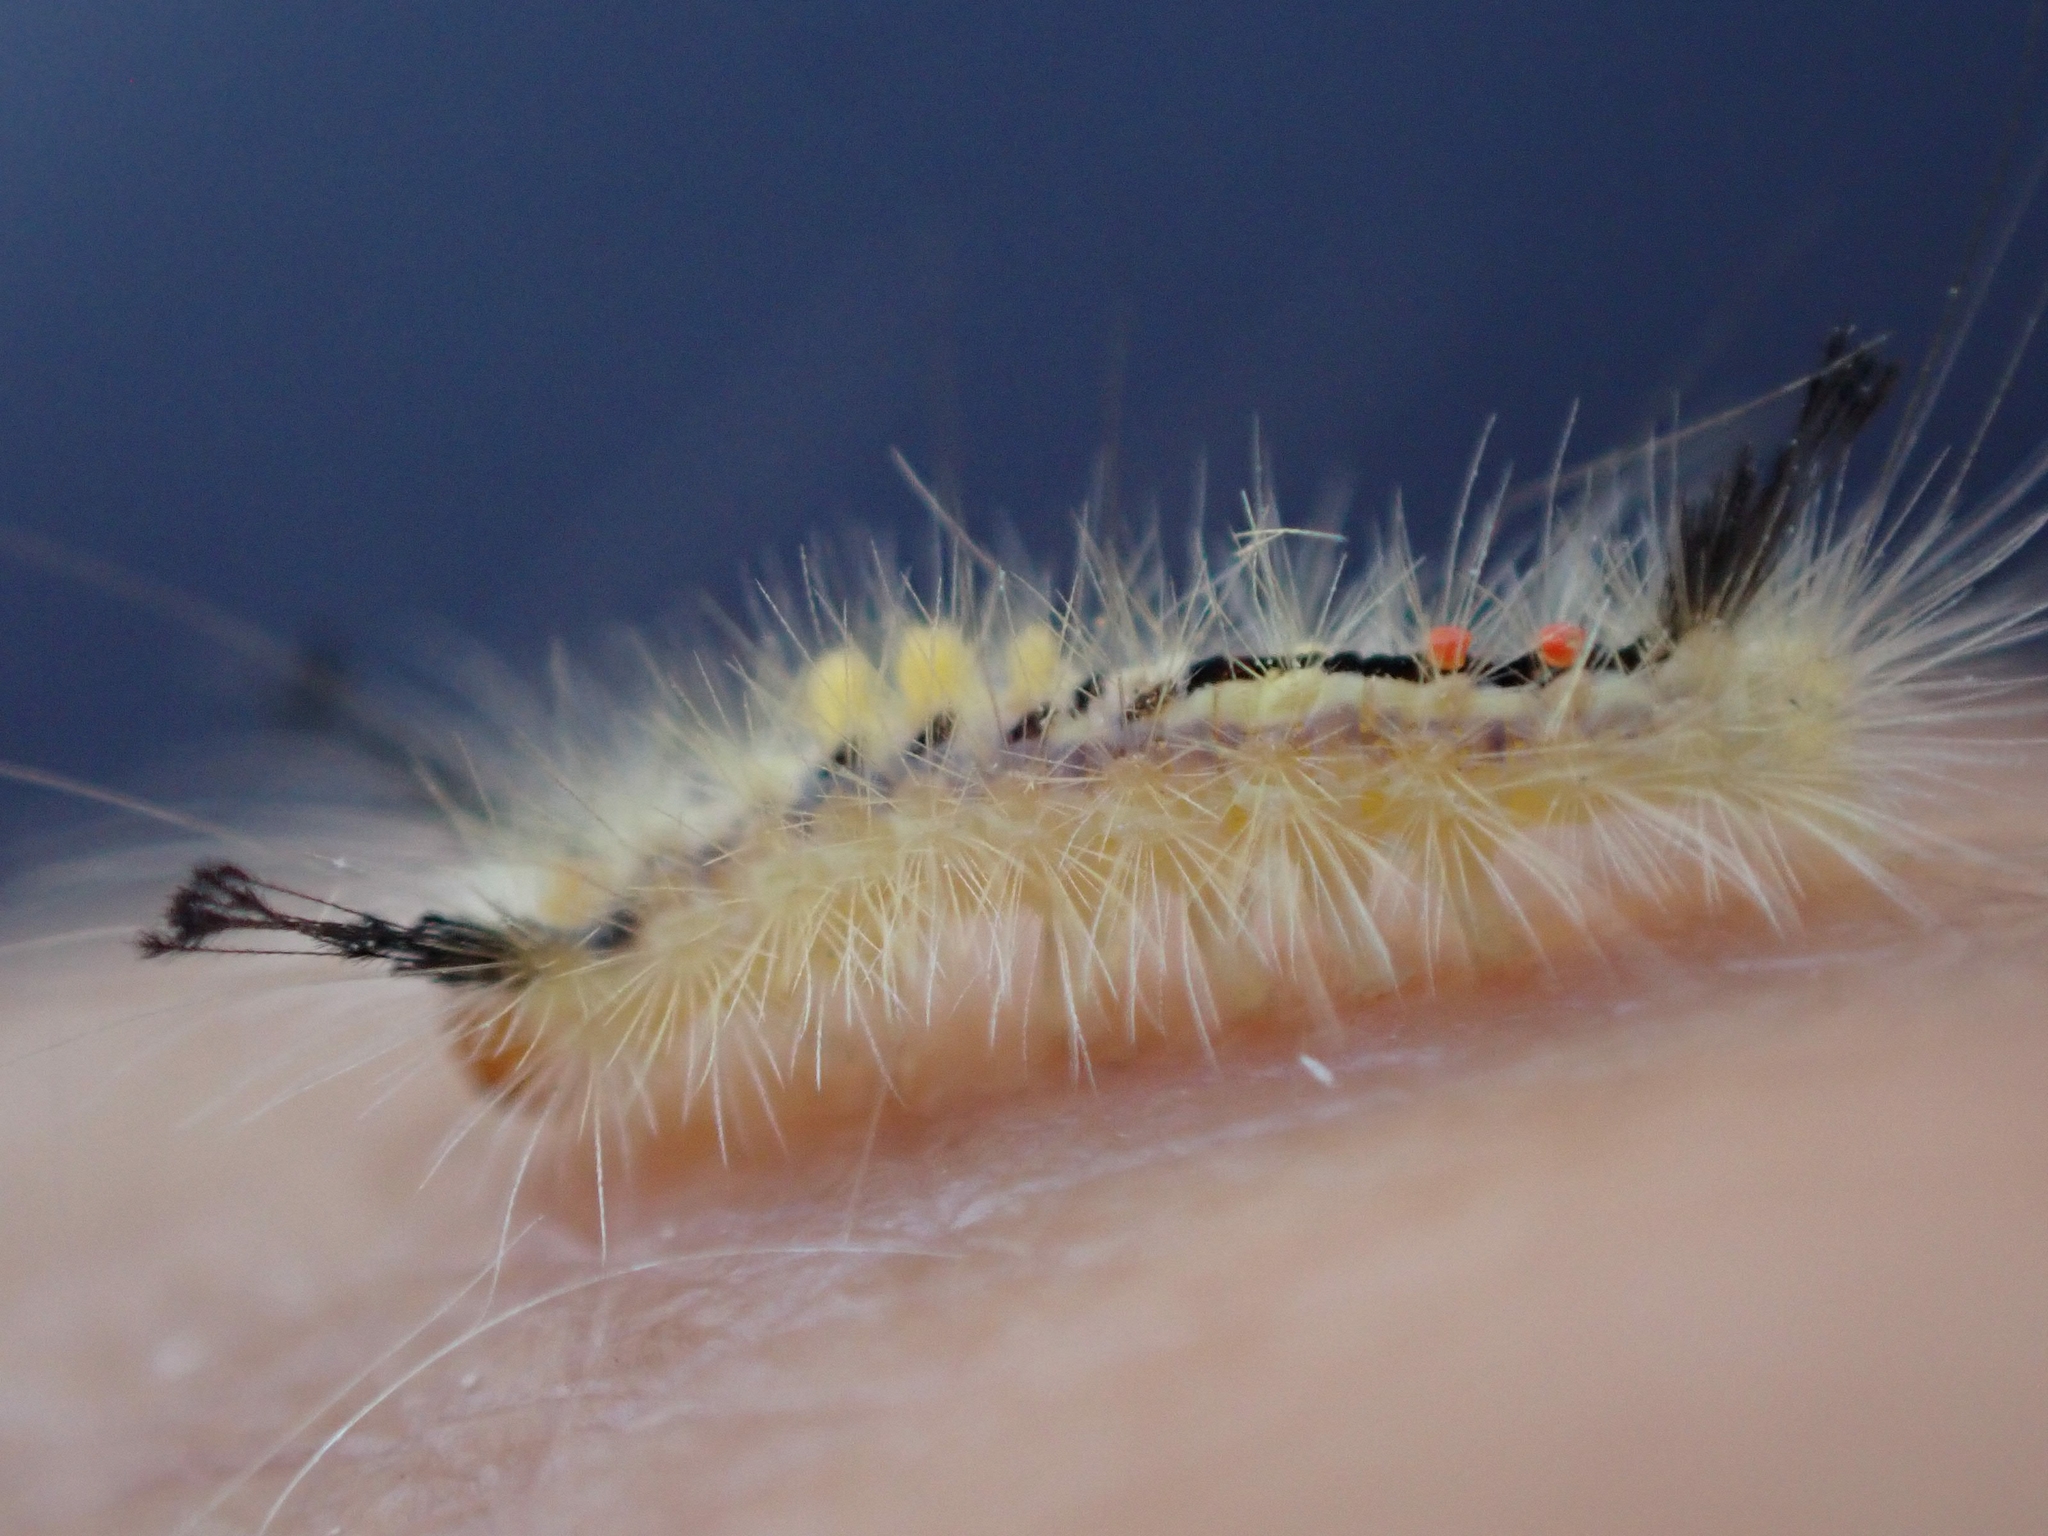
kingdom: Animalia
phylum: Arthropoda
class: Insecta
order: Lepidoptera
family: Erebidae
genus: Orgyia
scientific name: Orgyia leucostigma
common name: White-marked tussock moth
